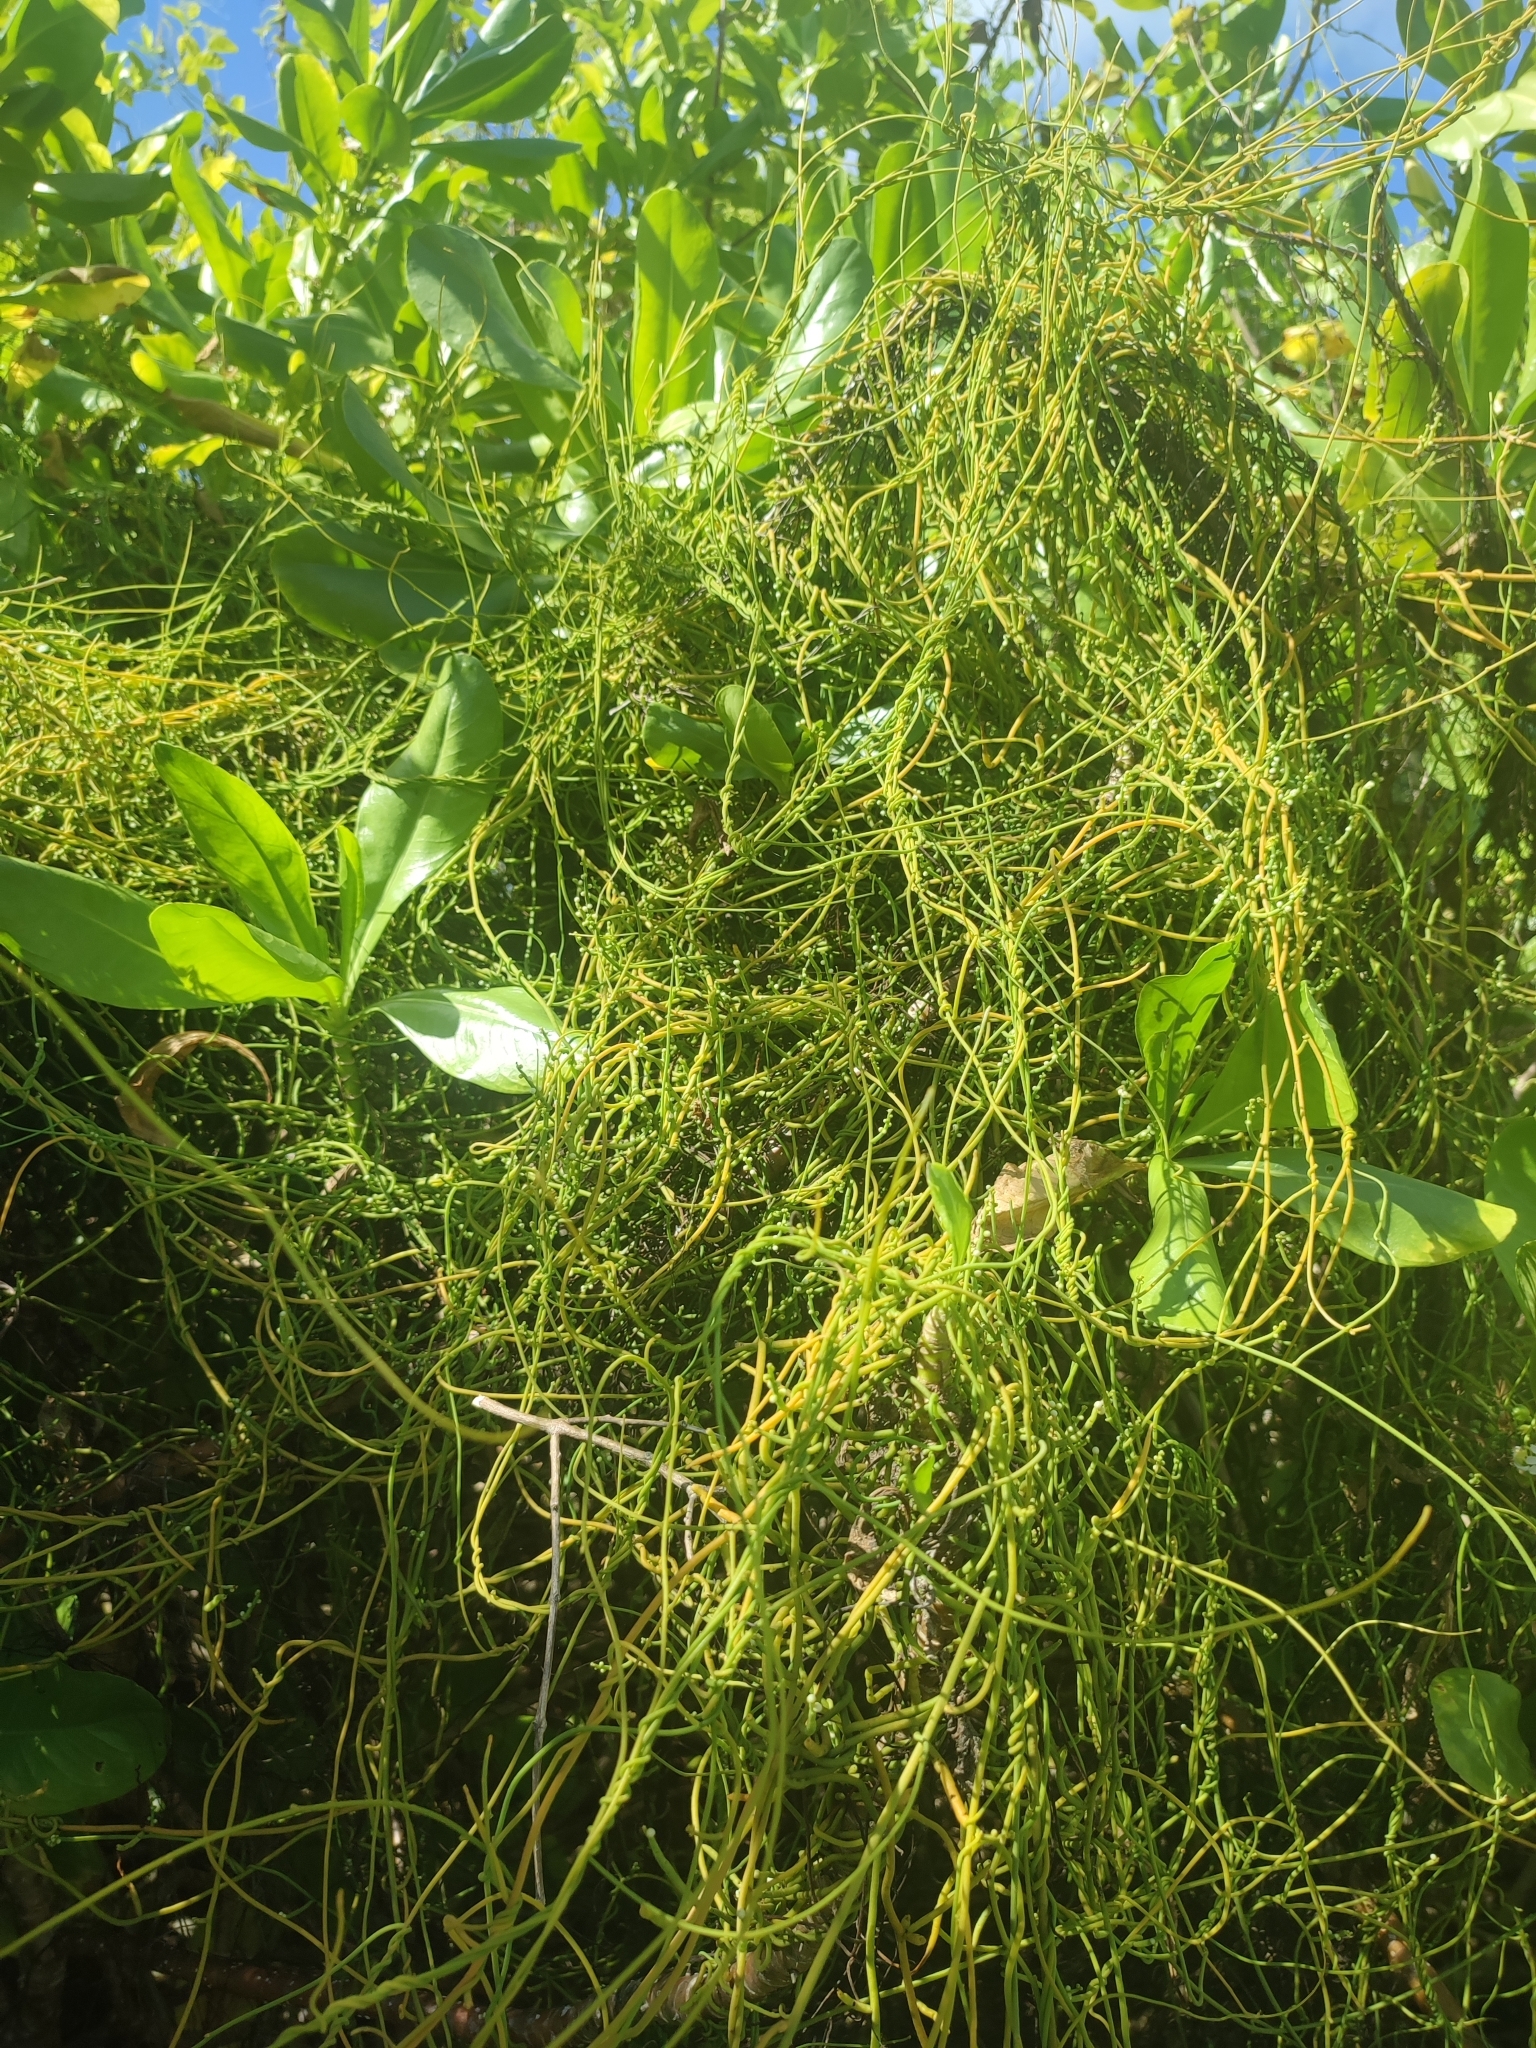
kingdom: Plantae
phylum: Tracheophyta
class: Magnoliopsida
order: Laurales
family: Lauraceae
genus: Cassytha
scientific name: Cassytha filiformis
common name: Dodder-laurel
